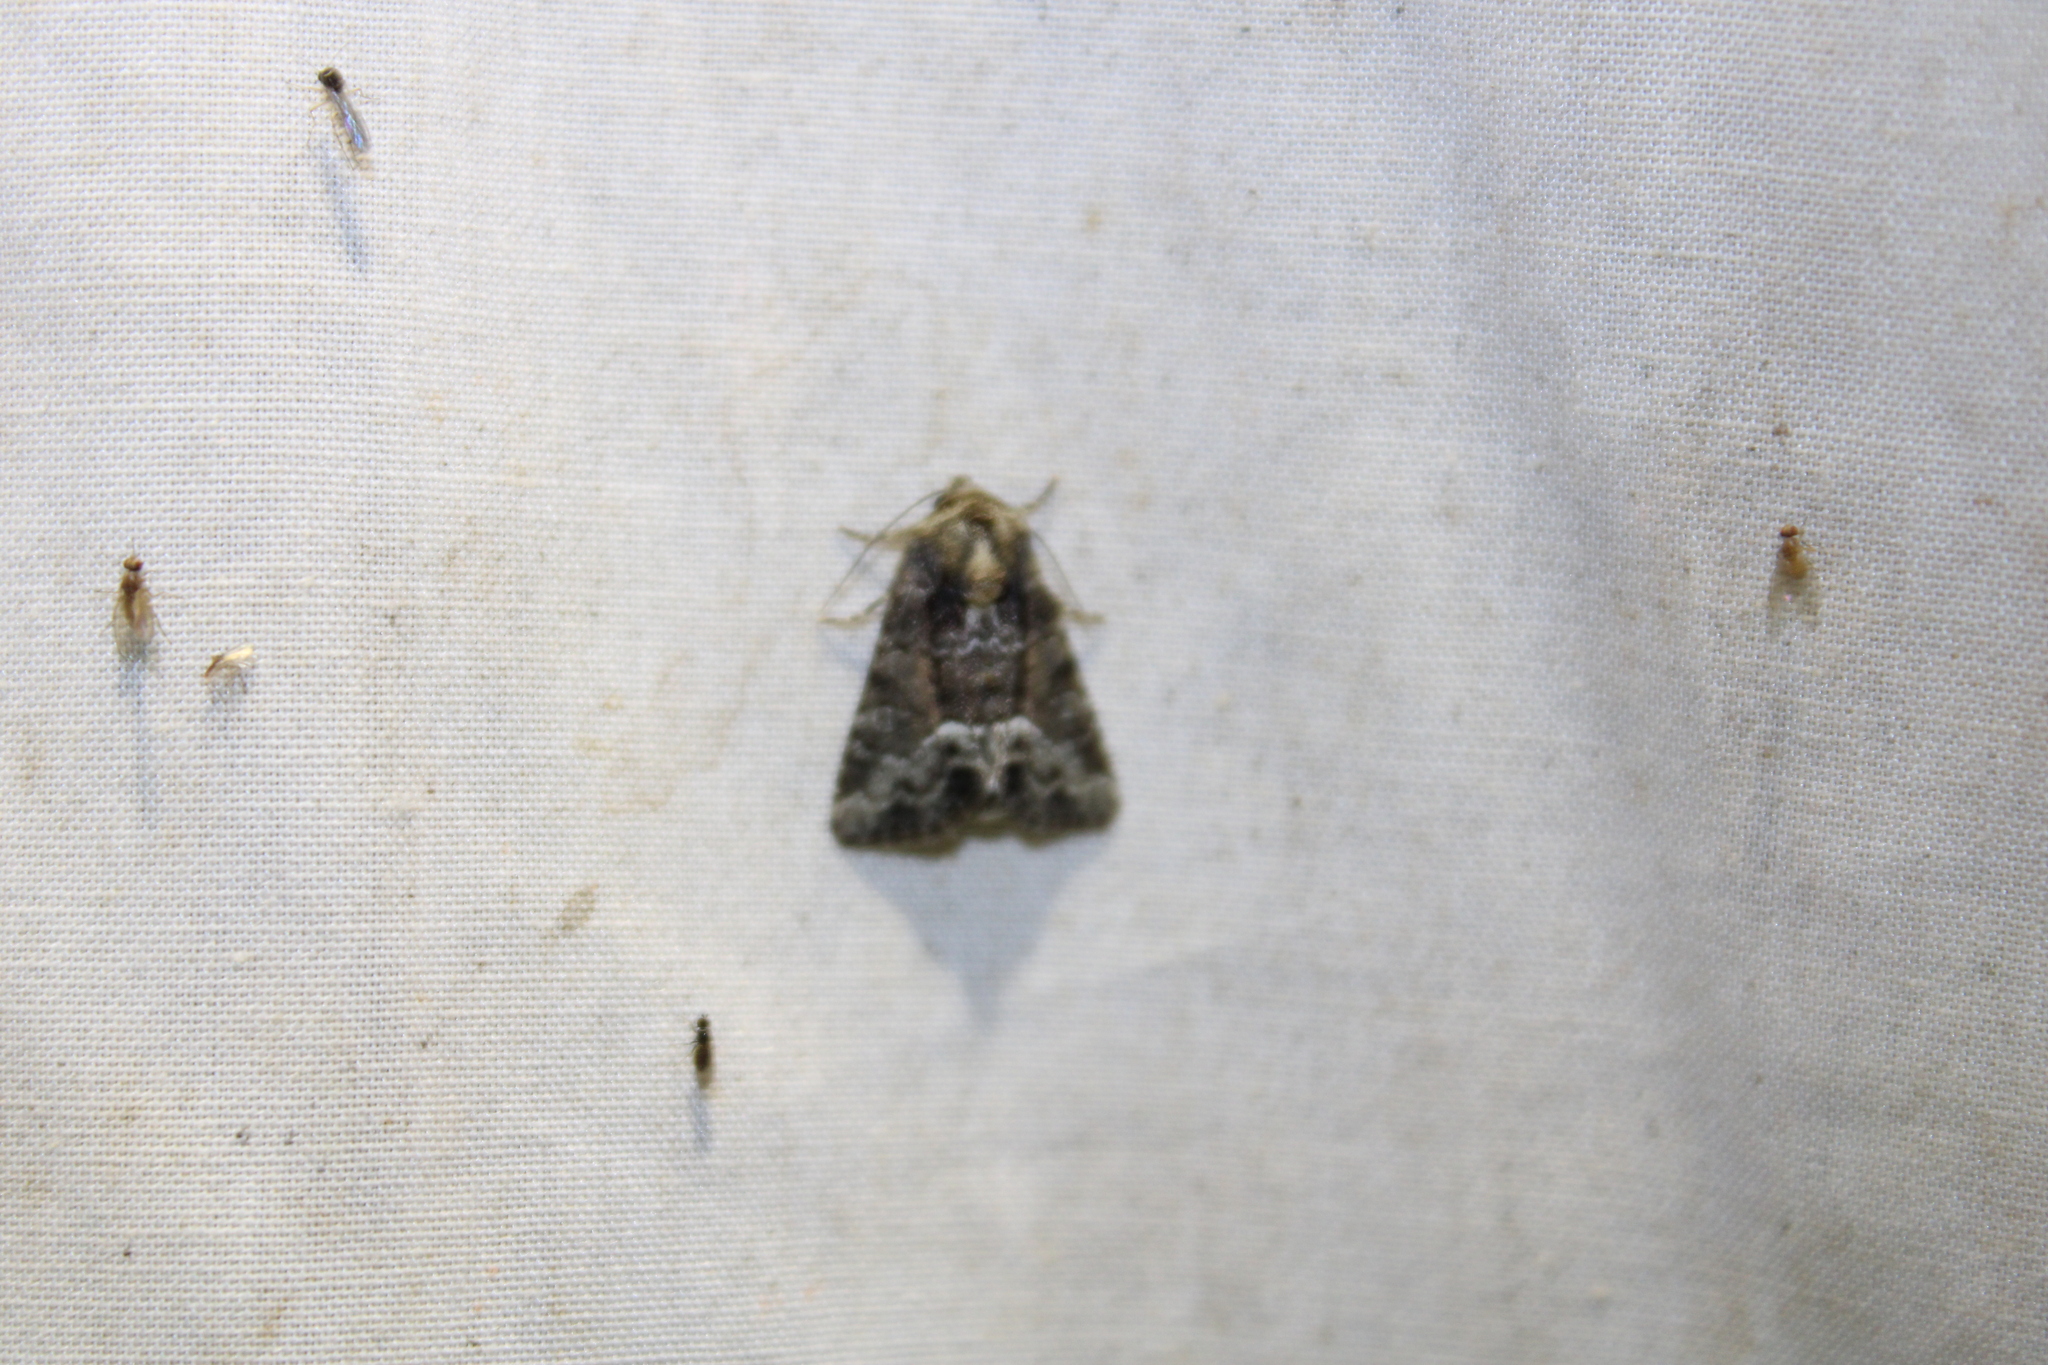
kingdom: Animalia
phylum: Arthropoda
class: Insecta
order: Lepidoptera
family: Noctuidae
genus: Oligia
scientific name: Oligia strigilis
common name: Marbled minor
